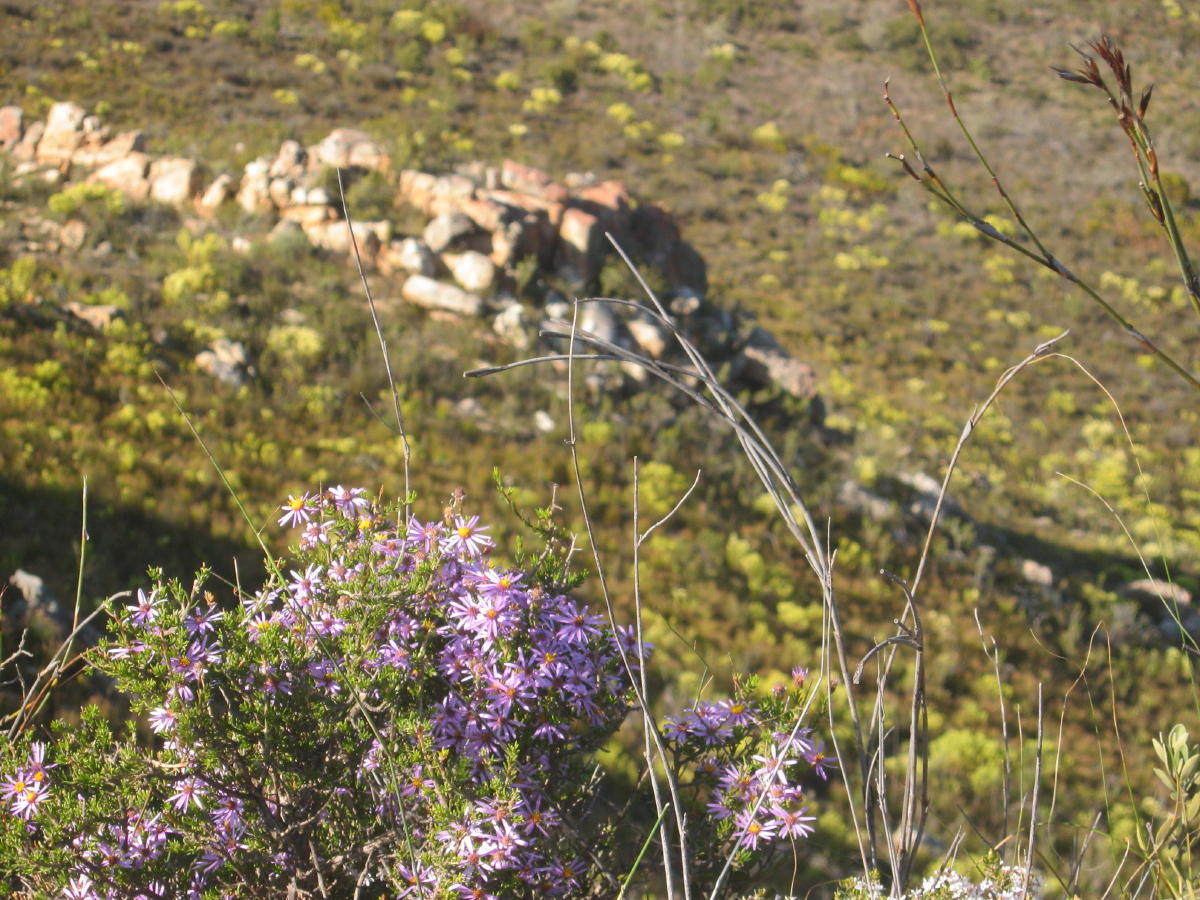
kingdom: Plantae
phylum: Tracheophyta
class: Magnoliopsida
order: Asterales
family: Asteraceae
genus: Felicia
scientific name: Felicia filifolia
